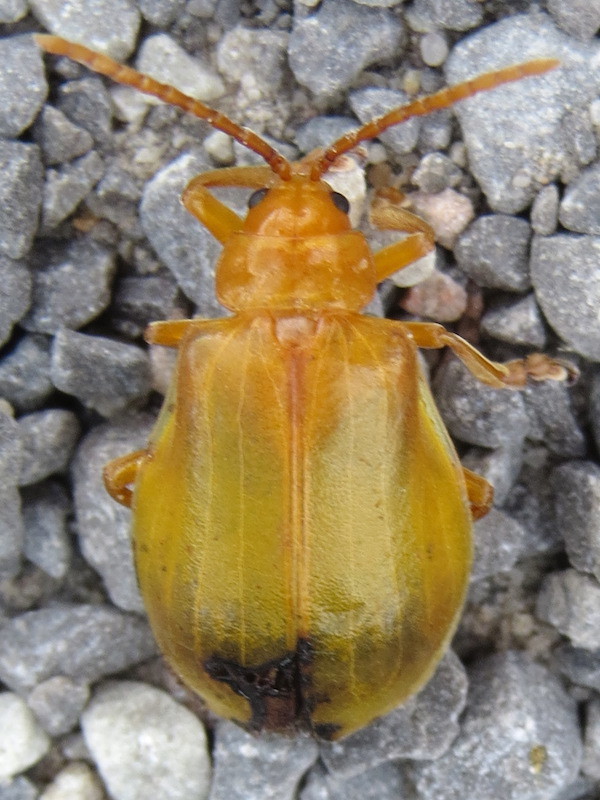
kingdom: Animalia
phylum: Arthropoda
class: Insecta
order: Coleoptera
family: Chrysomelidae
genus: Monocesta
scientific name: Monocesta coryli
